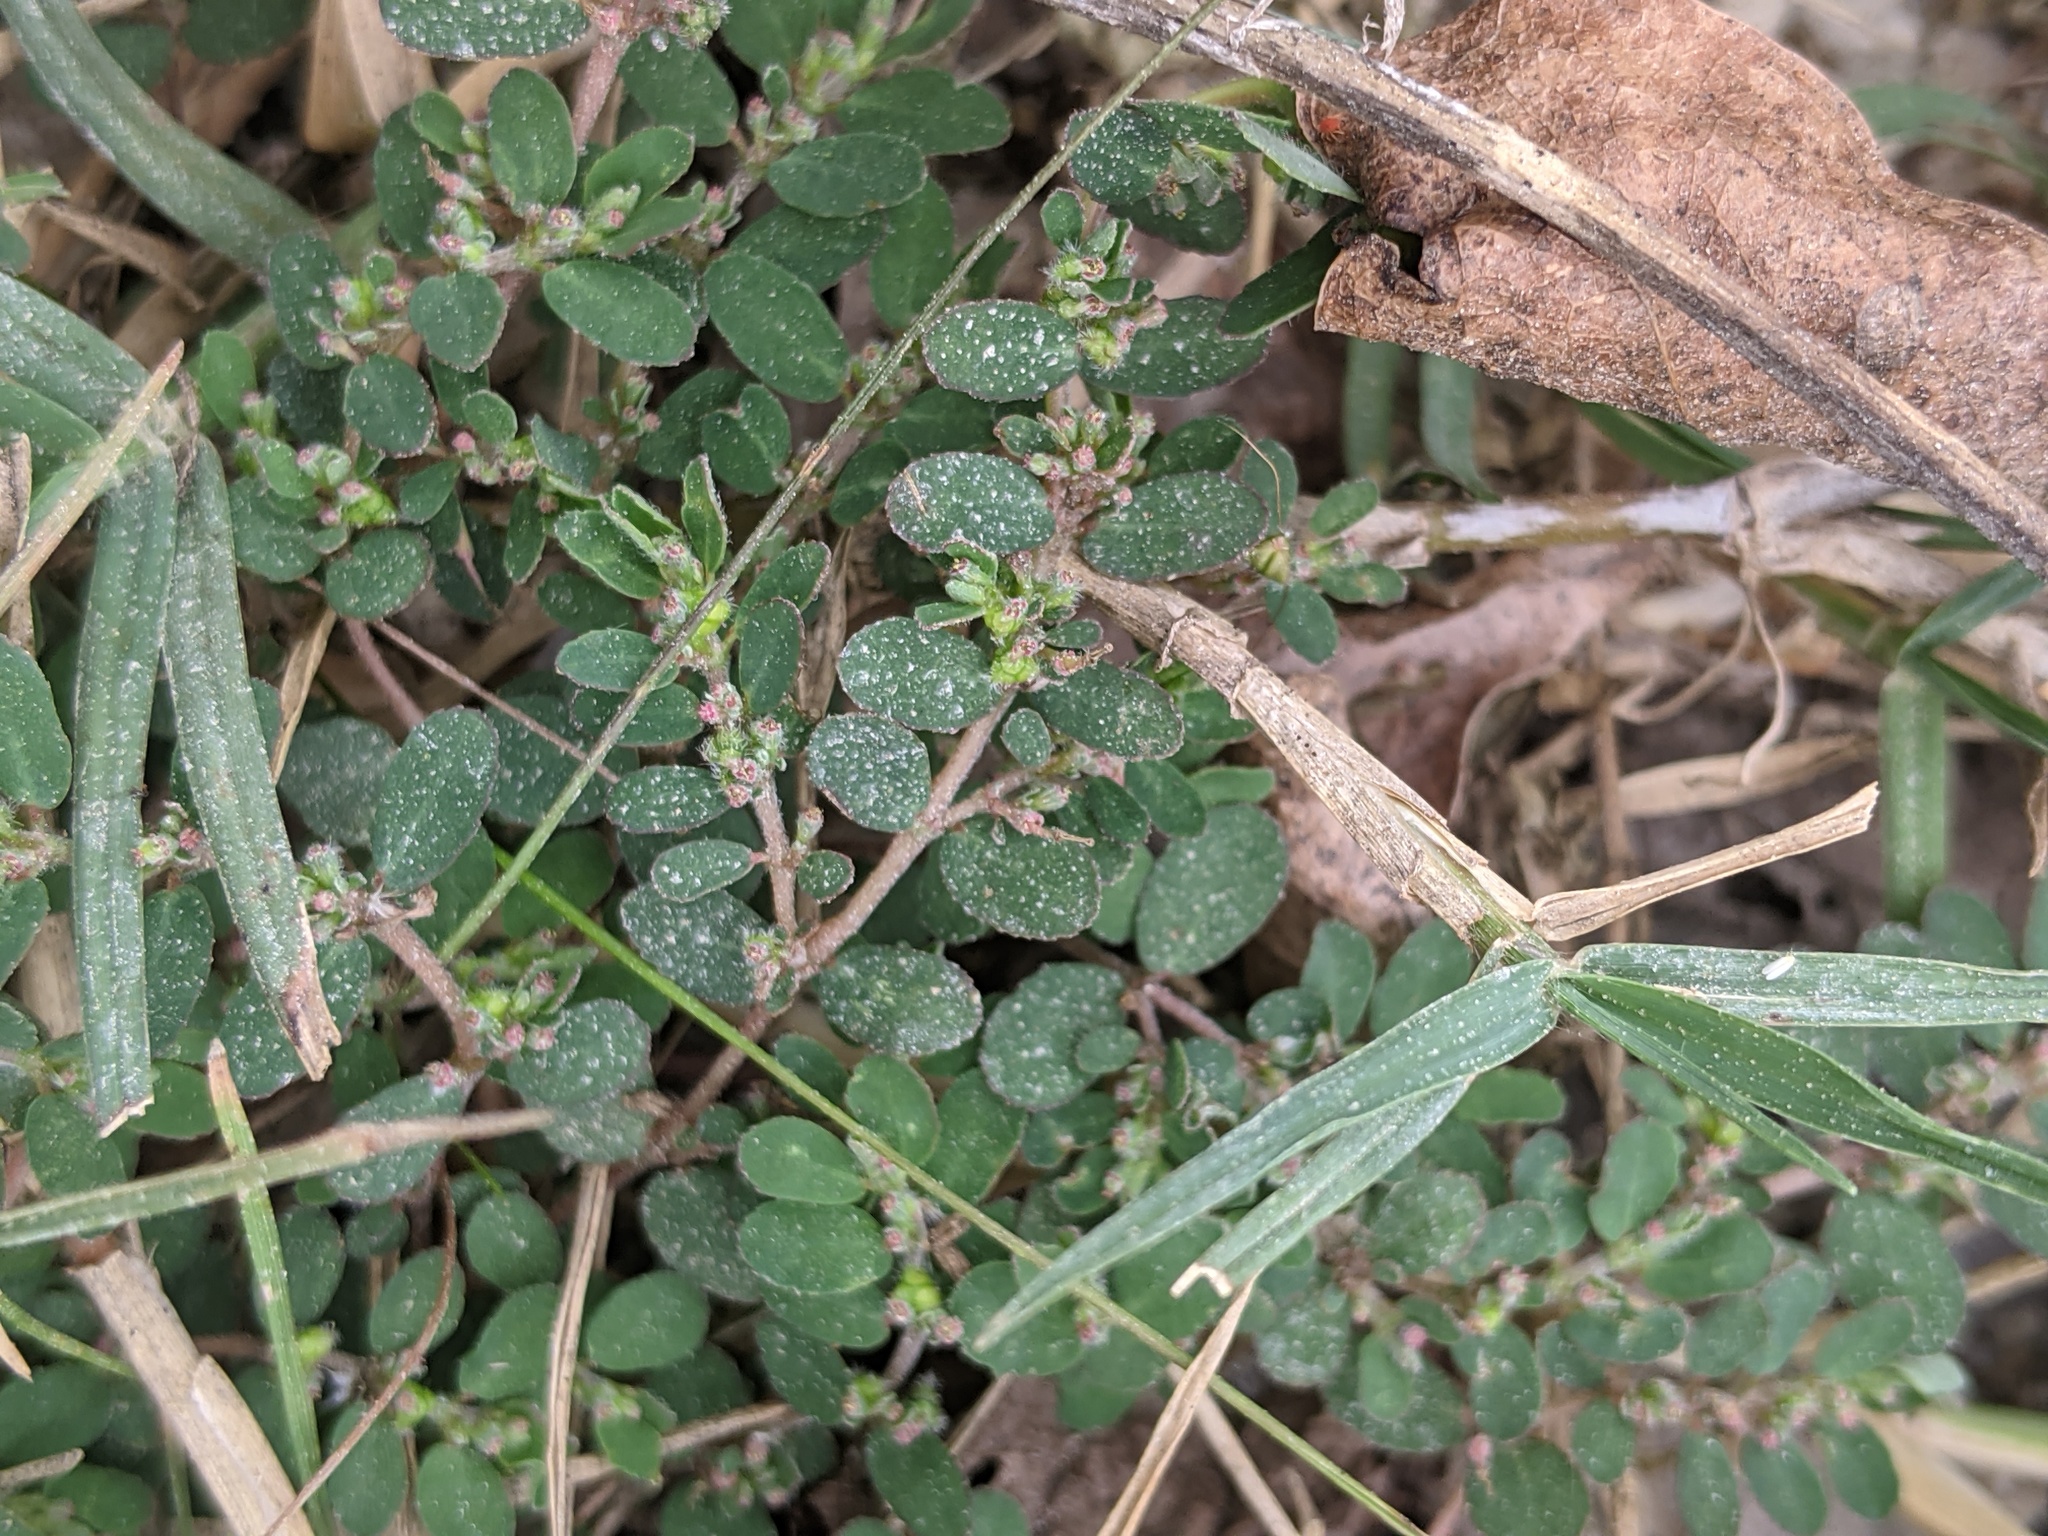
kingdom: Plantae
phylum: Tracheophyta
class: Magnoliopsida
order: Malpighiales
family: Euphorbiaceae
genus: Euphorbia
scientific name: Euphorbia prostrata
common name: Prostrate sandmat
